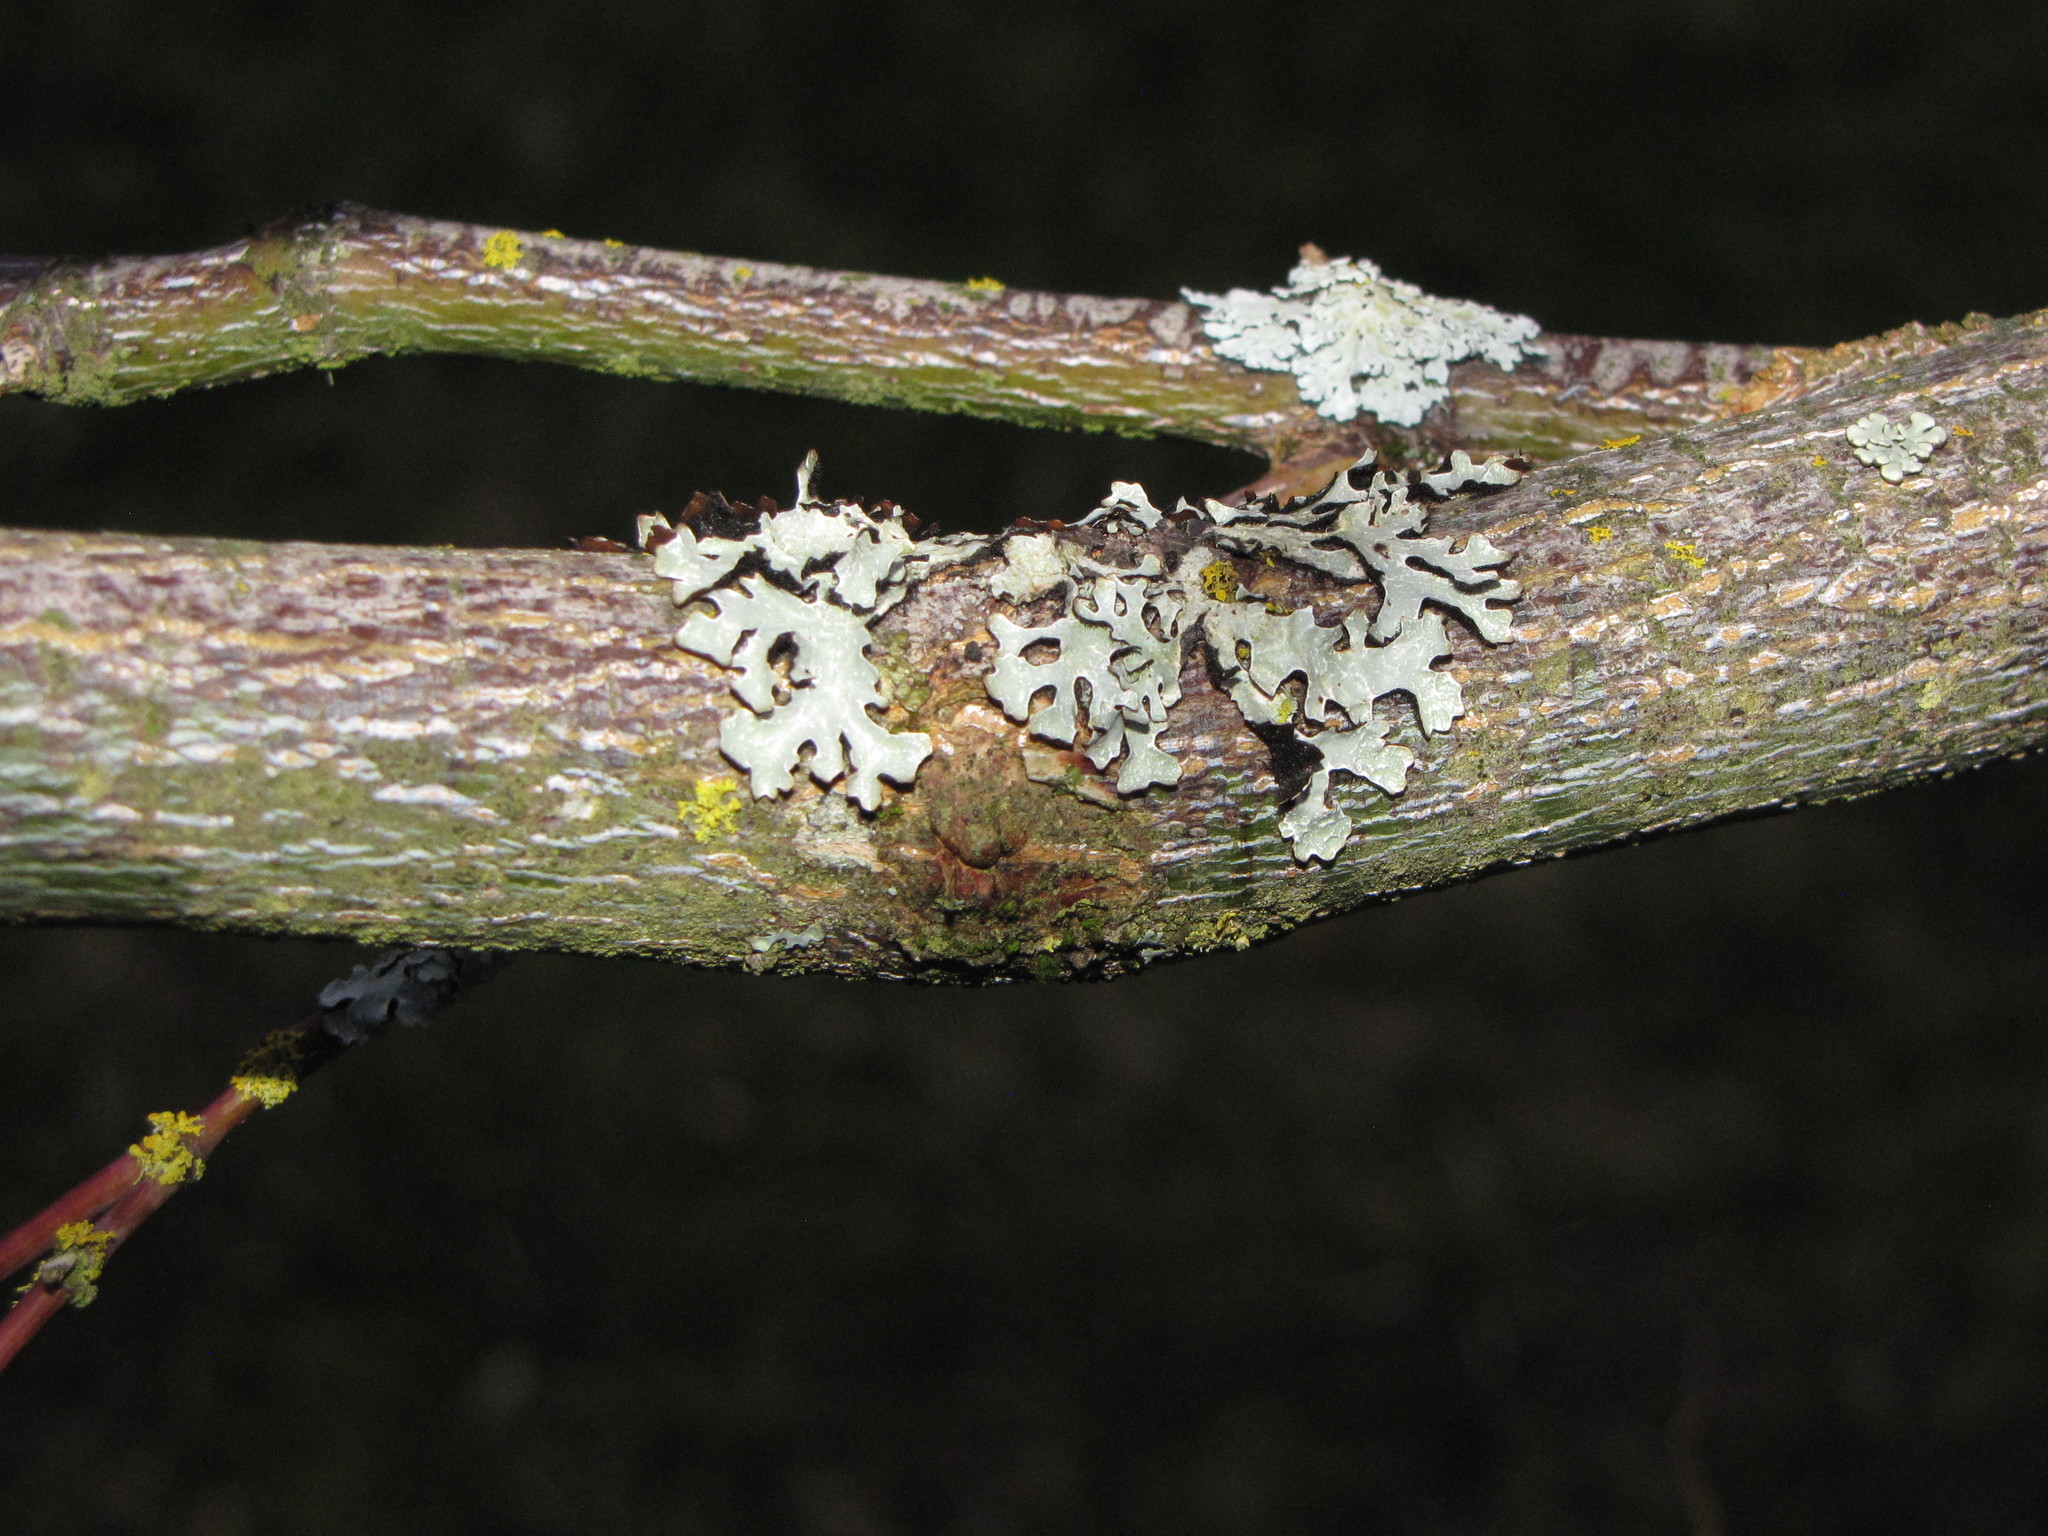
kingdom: Fungi
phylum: Ascomycota
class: Lecanoromycetes
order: Lecanorales
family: Parmeliaceae
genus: Parmelia
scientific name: Parmelia sulcata
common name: Netted shield lichen
